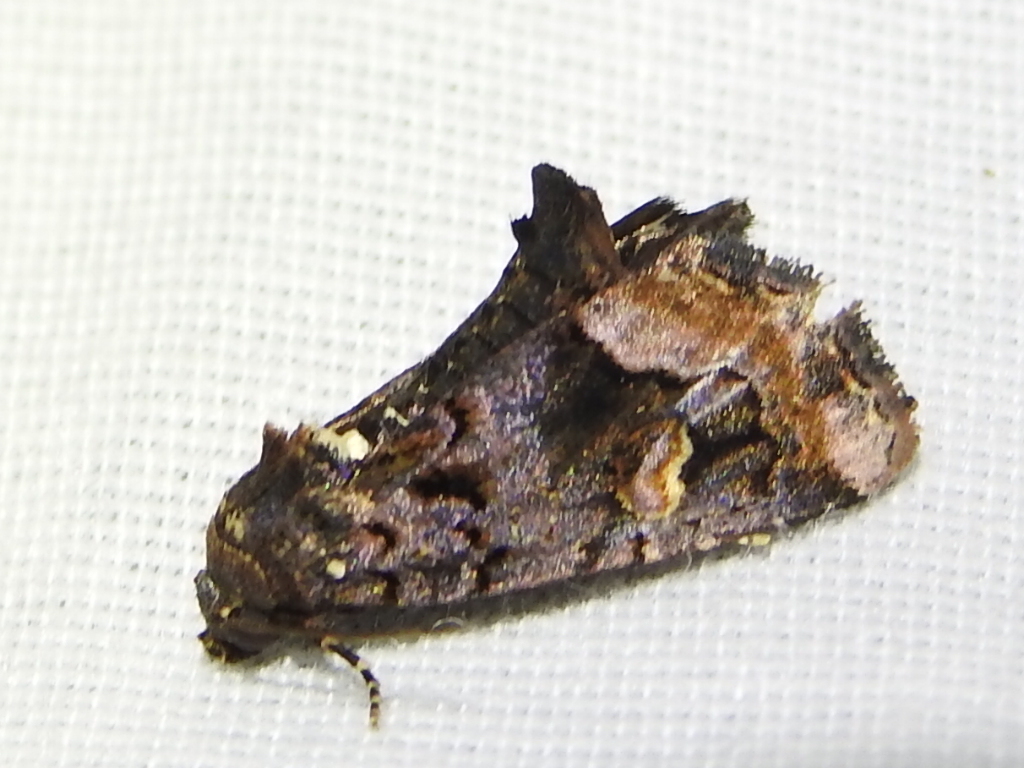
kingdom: Animalia
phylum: Arthropoda
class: Insecta
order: Lepidoptera
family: Noctuidae
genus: Homophoberia
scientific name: Homophoberia apicosa
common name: Black wedge-spot
